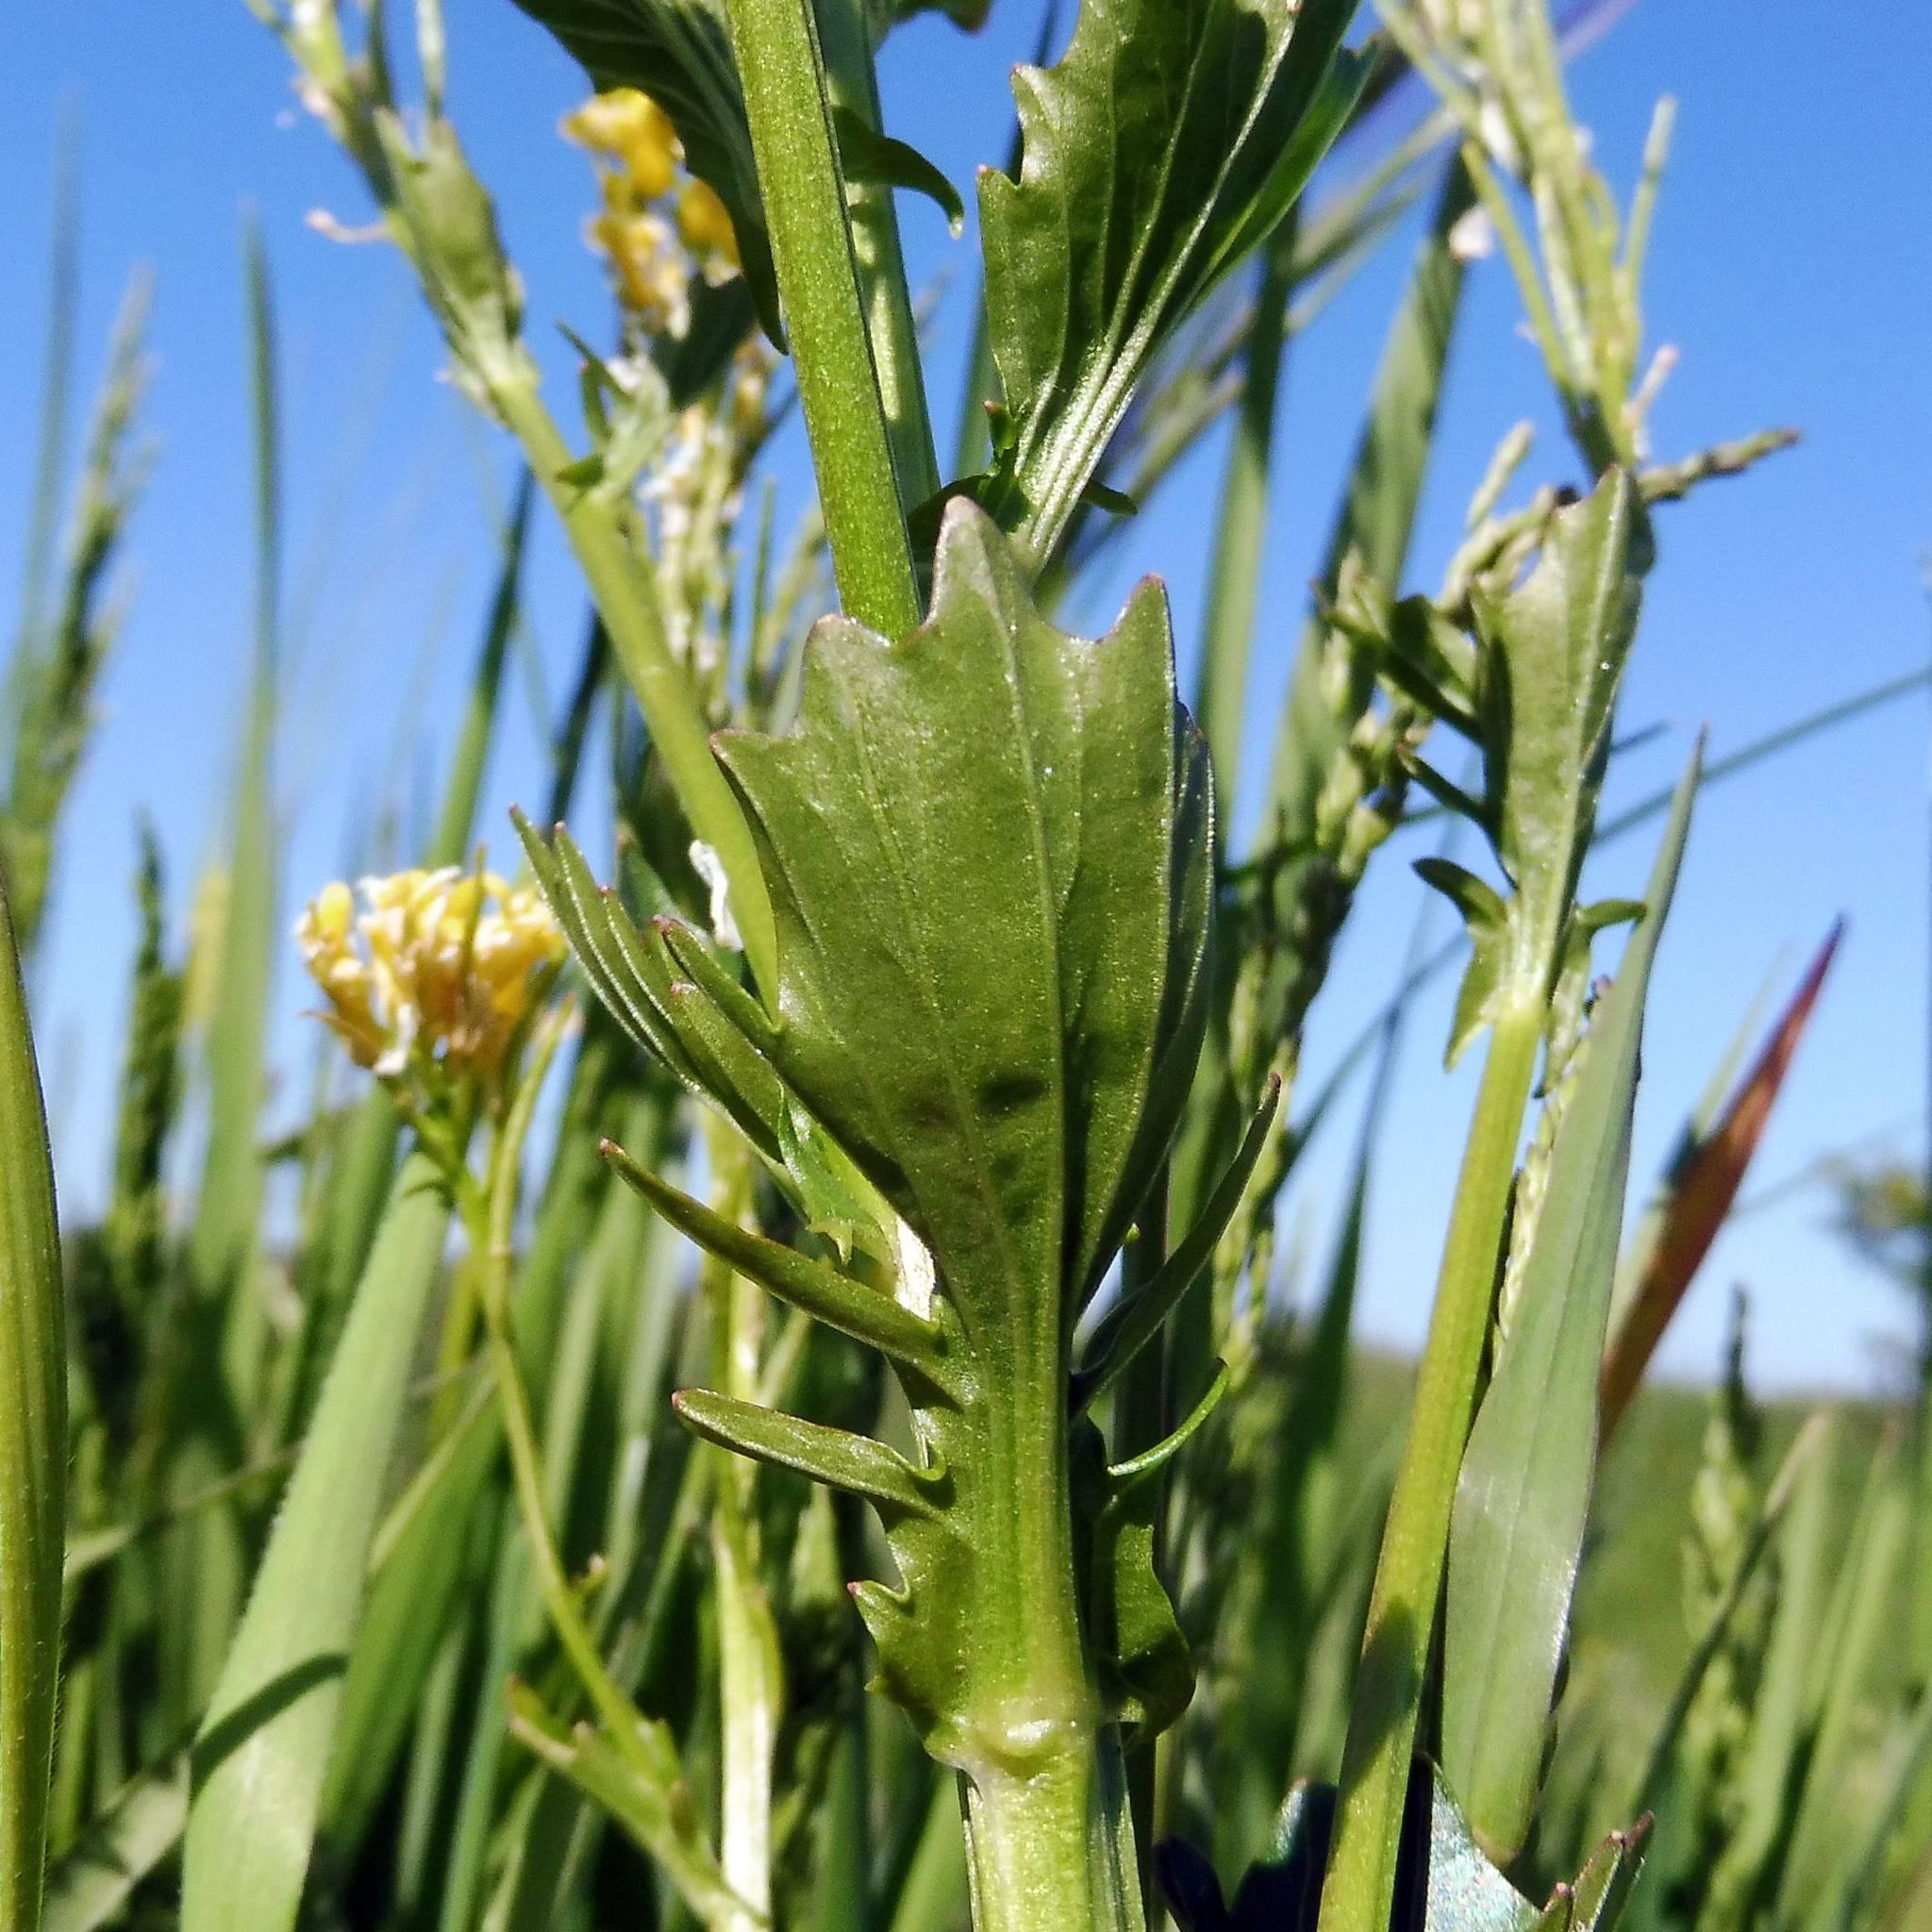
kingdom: Plantae
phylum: Tracheophyta
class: Magnoliopsida
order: Brassicales
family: Brassicaceae
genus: Barbarea
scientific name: Barbarea vulgaris
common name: Cressy-greens
